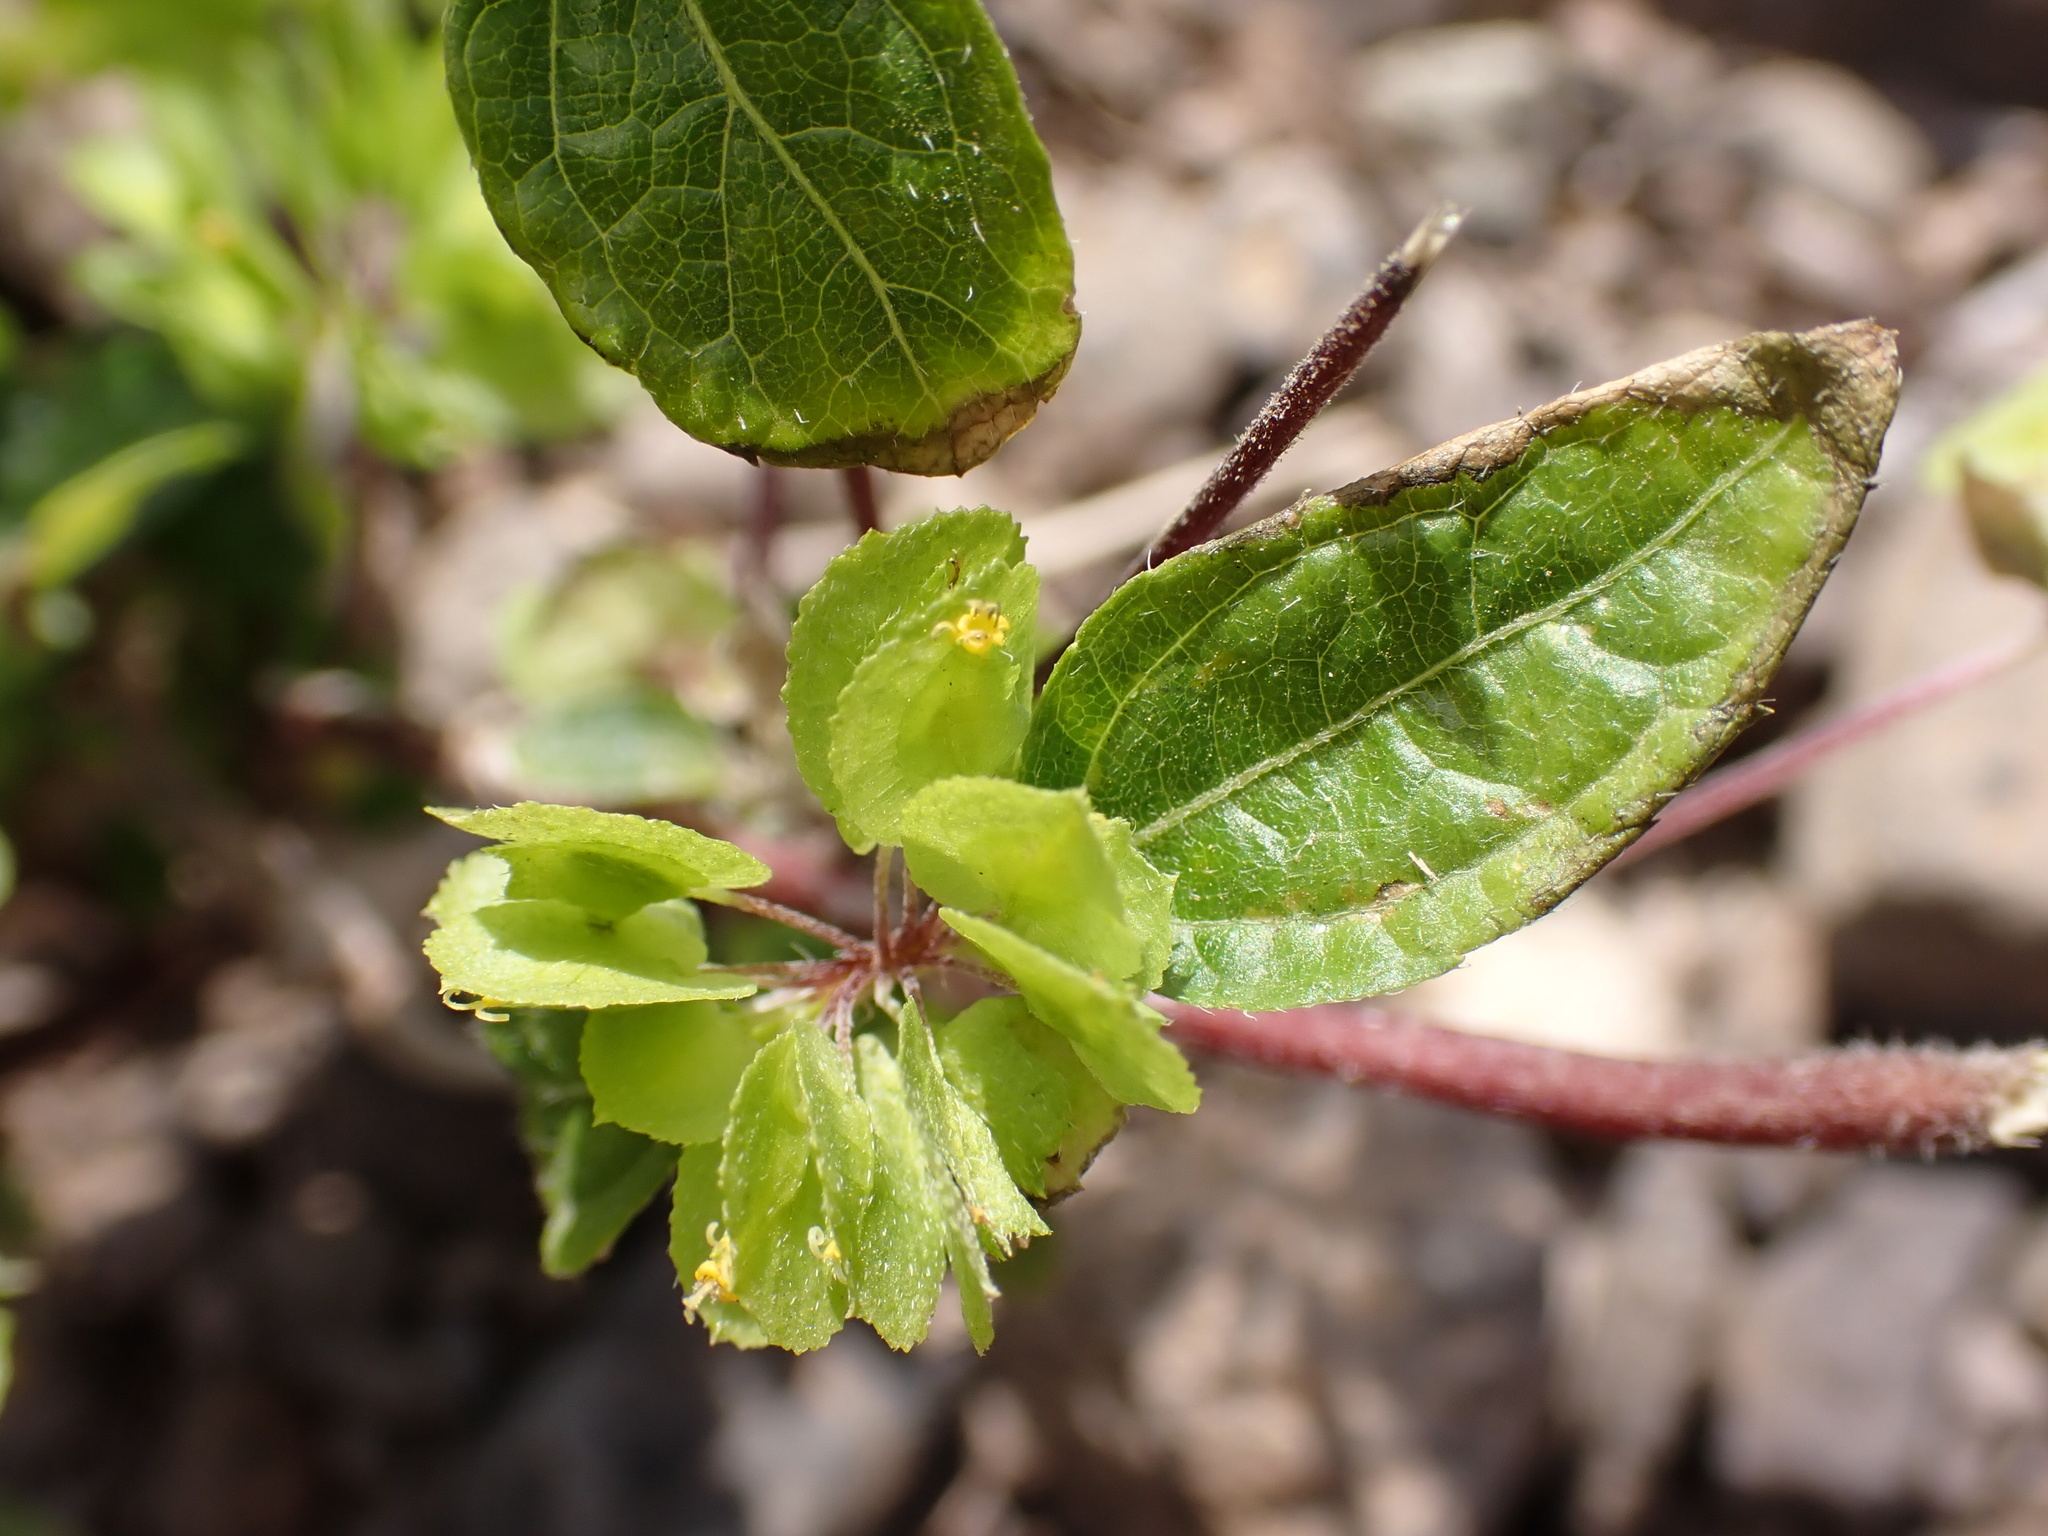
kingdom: Plantae
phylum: Tracheophyta
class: Magnoliopsida
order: Asterales
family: Asteraceae
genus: Delilia
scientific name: Delilia biflora
